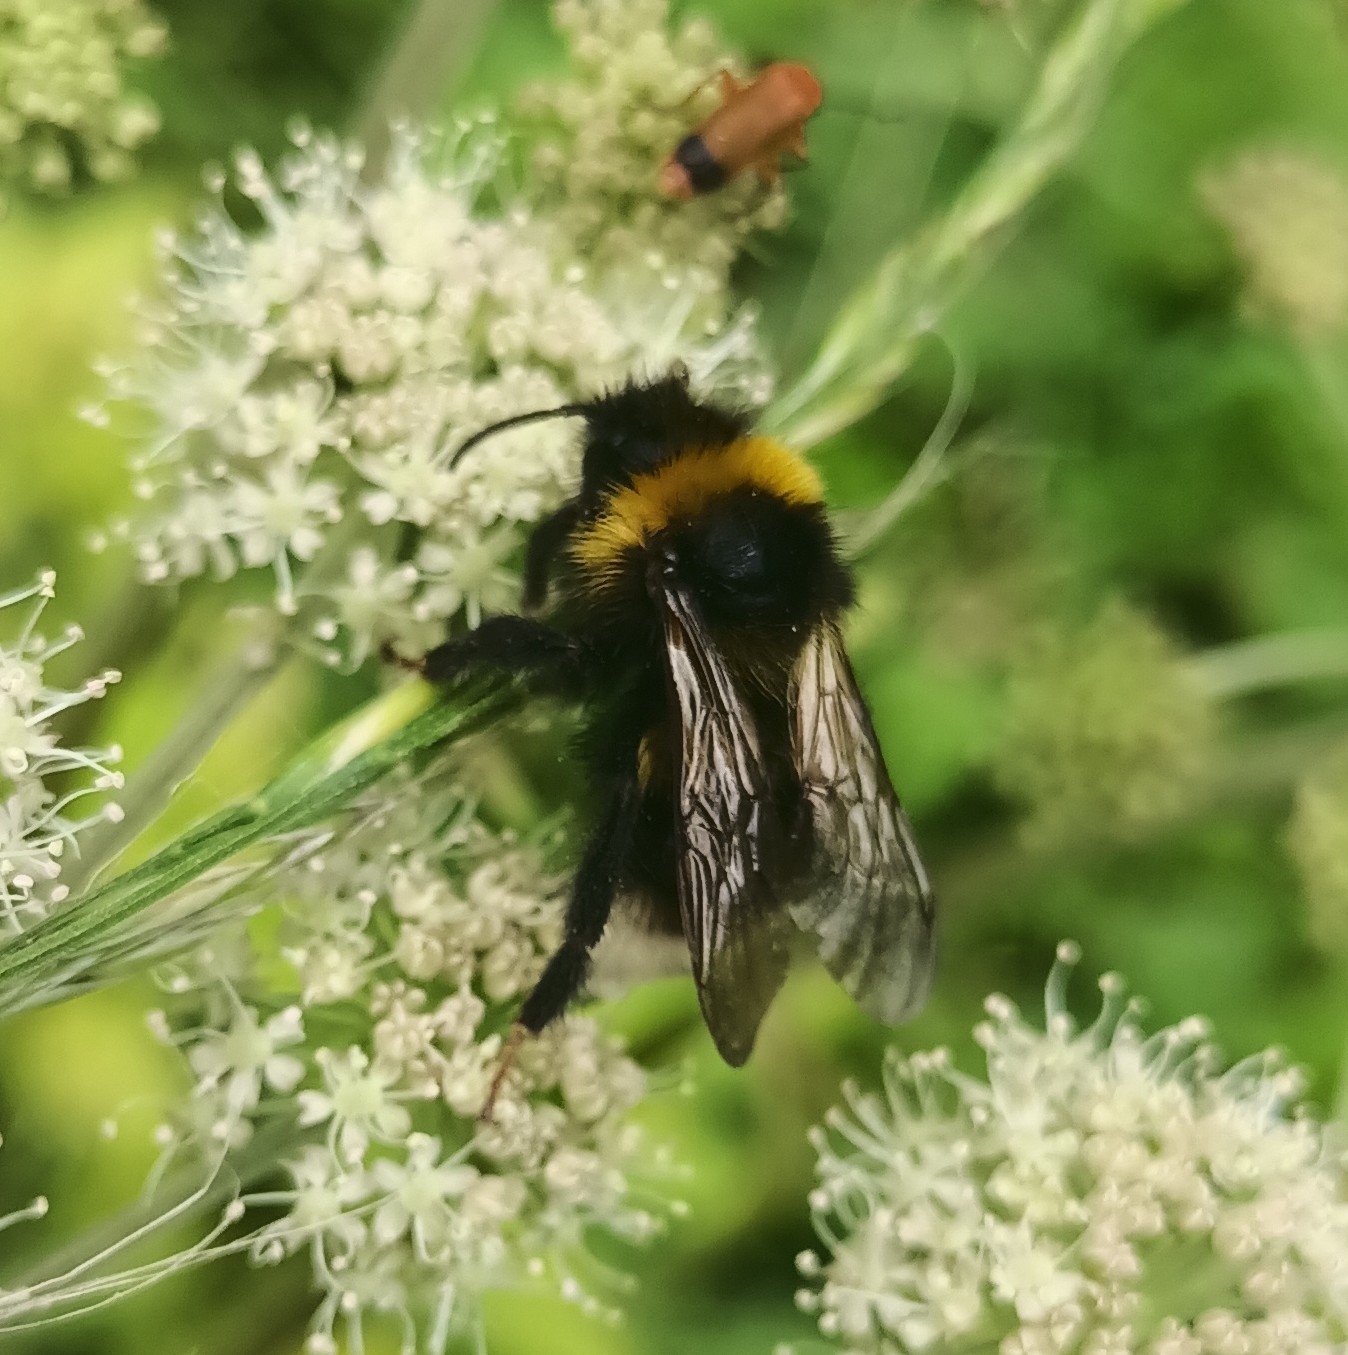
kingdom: Animalia
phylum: Arthropoda
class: Insecta
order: Hymenoptera
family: Apidae
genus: Bombus
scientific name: Bombus bohemicus
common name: Gypsy cuckoo bee
